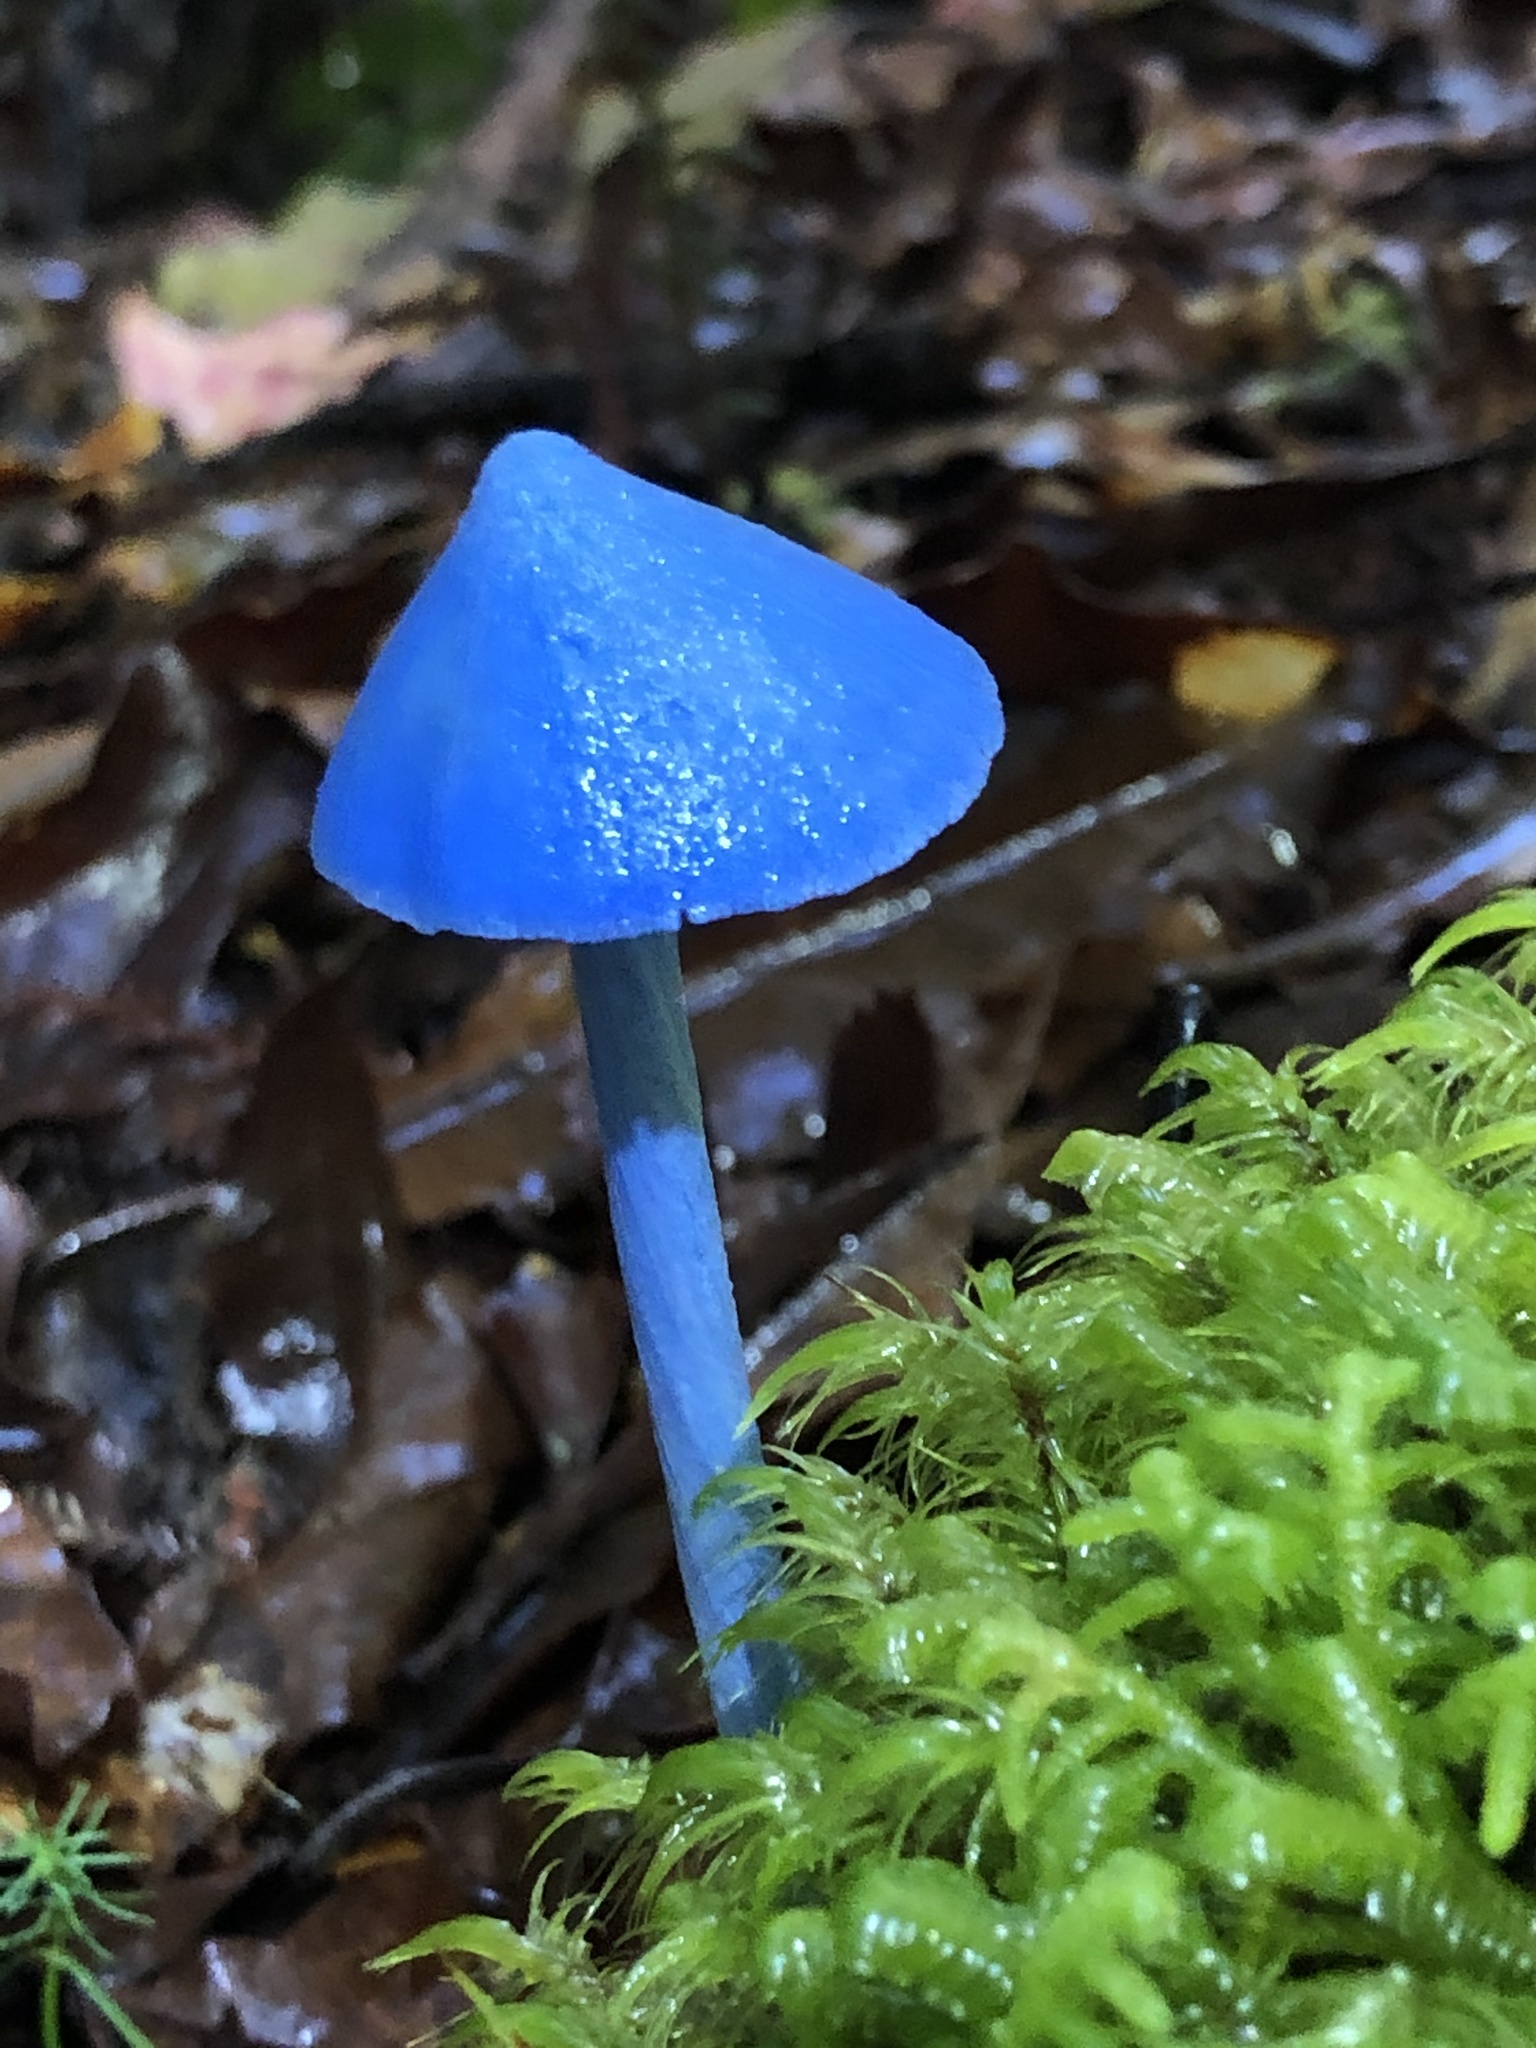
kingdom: Fungi
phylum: Basidiomycota
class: Agaricomycetes
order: Agaricales
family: Entolomataceae
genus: Entoloma
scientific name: Entoloma hochstetteri
